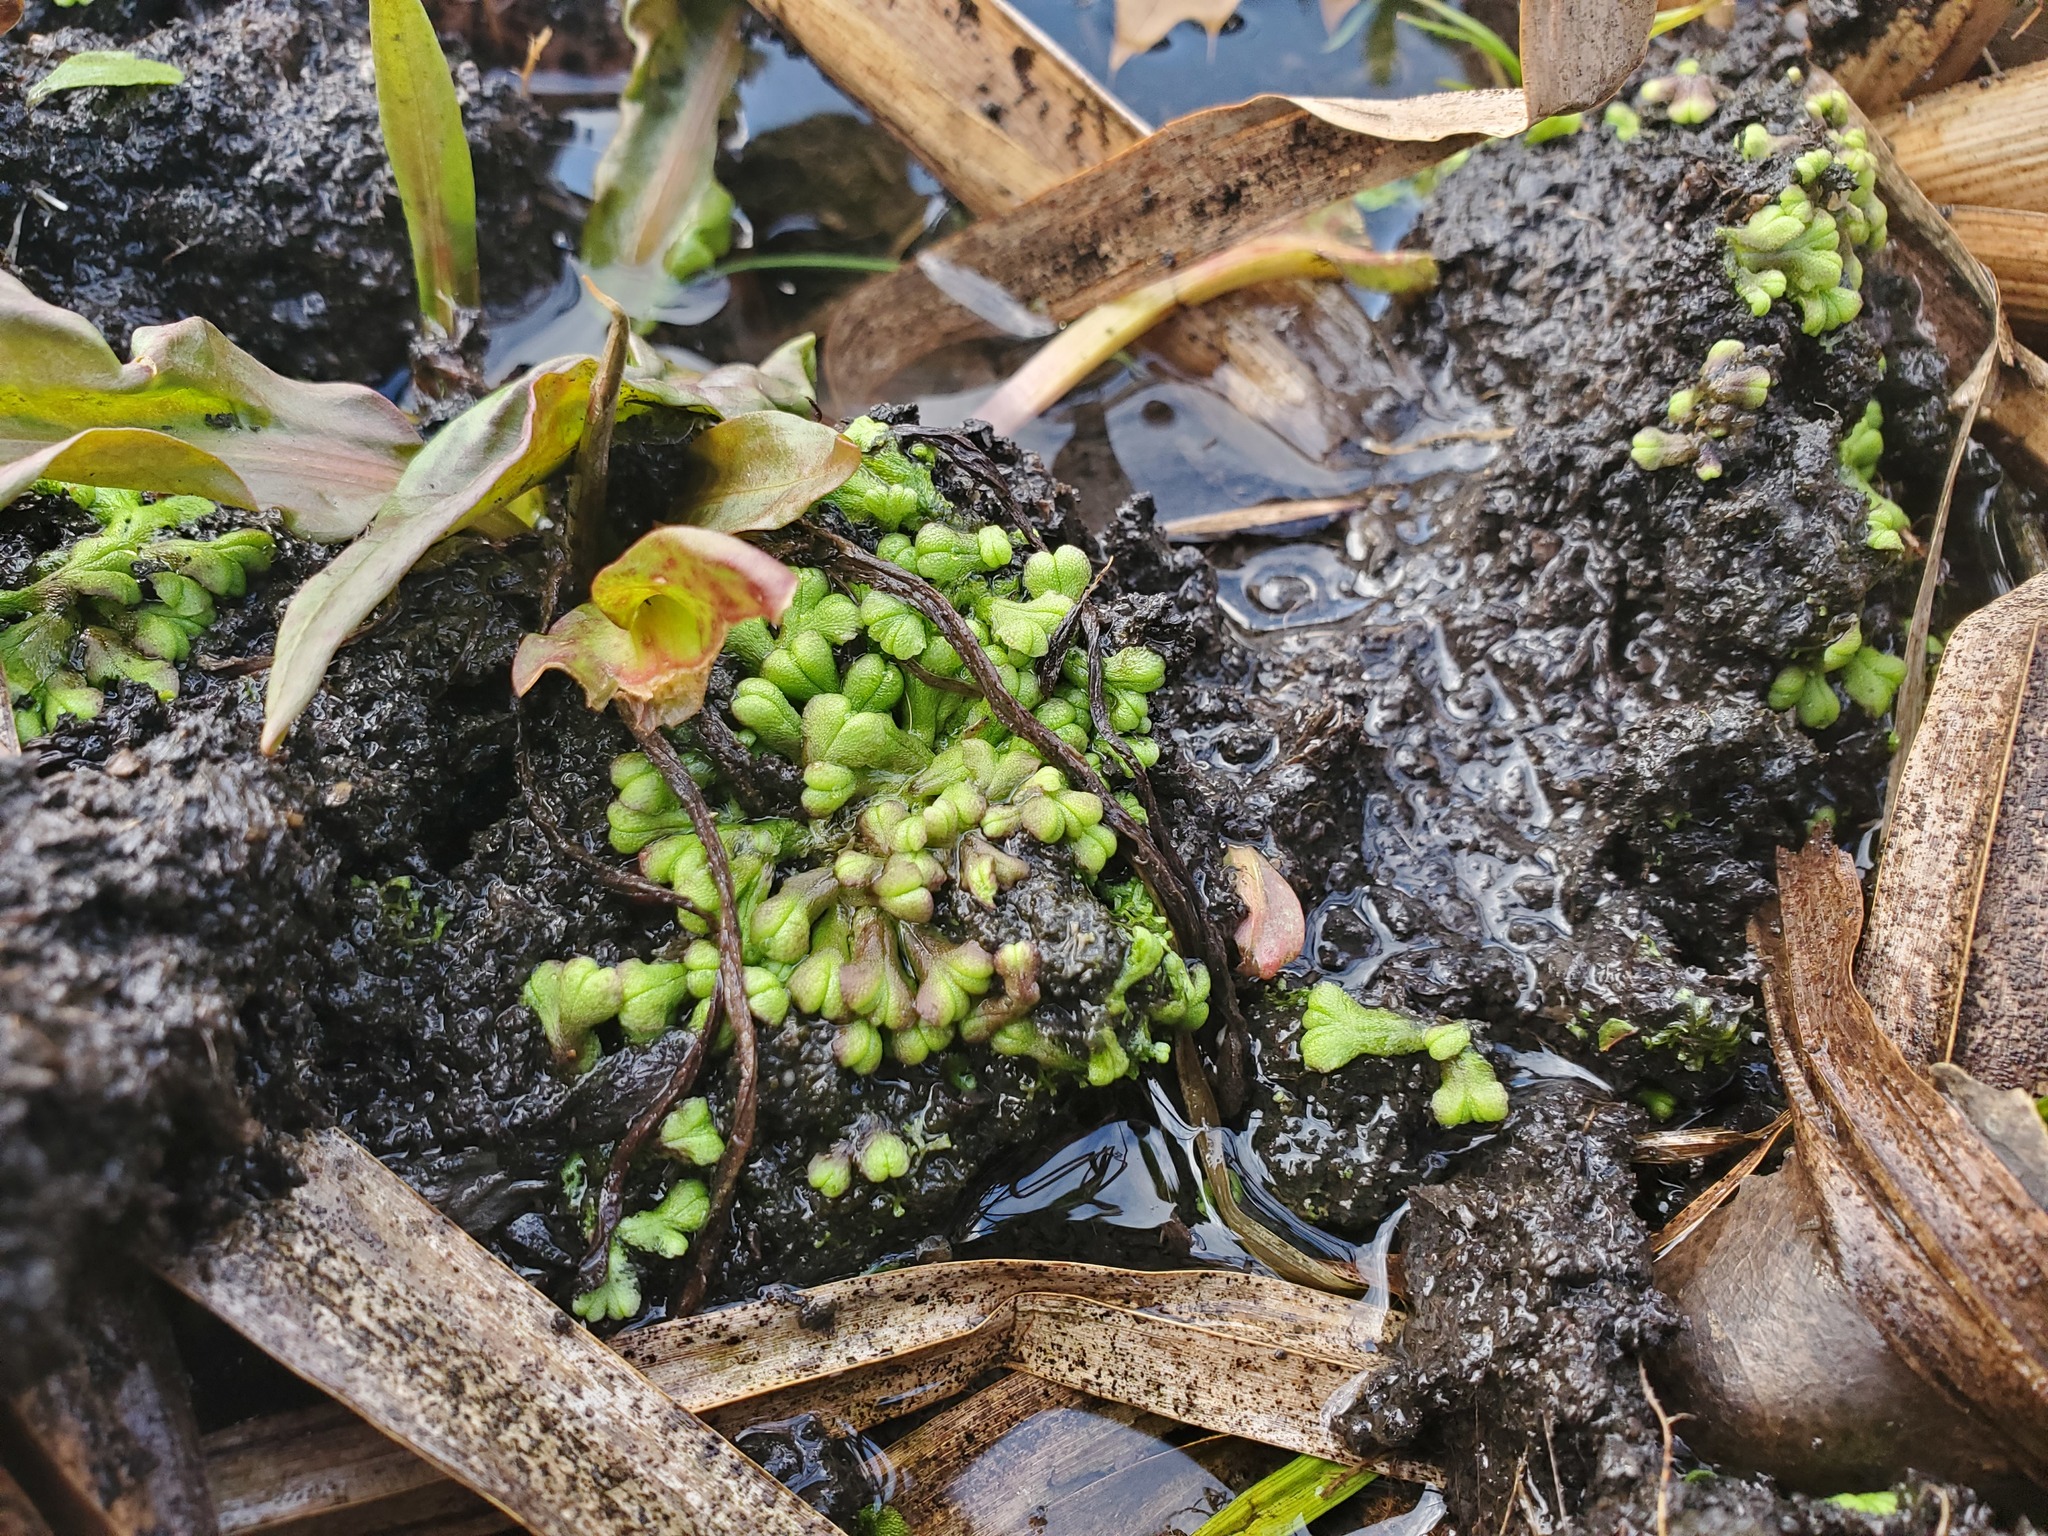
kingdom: Plantae
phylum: Marchantiophyta
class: Marchantiopsida
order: Marchantiales
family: Ricciaceae
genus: Ricciocarpos
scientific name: Ricciocarpos natans
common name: Purple-fringed liverwort
